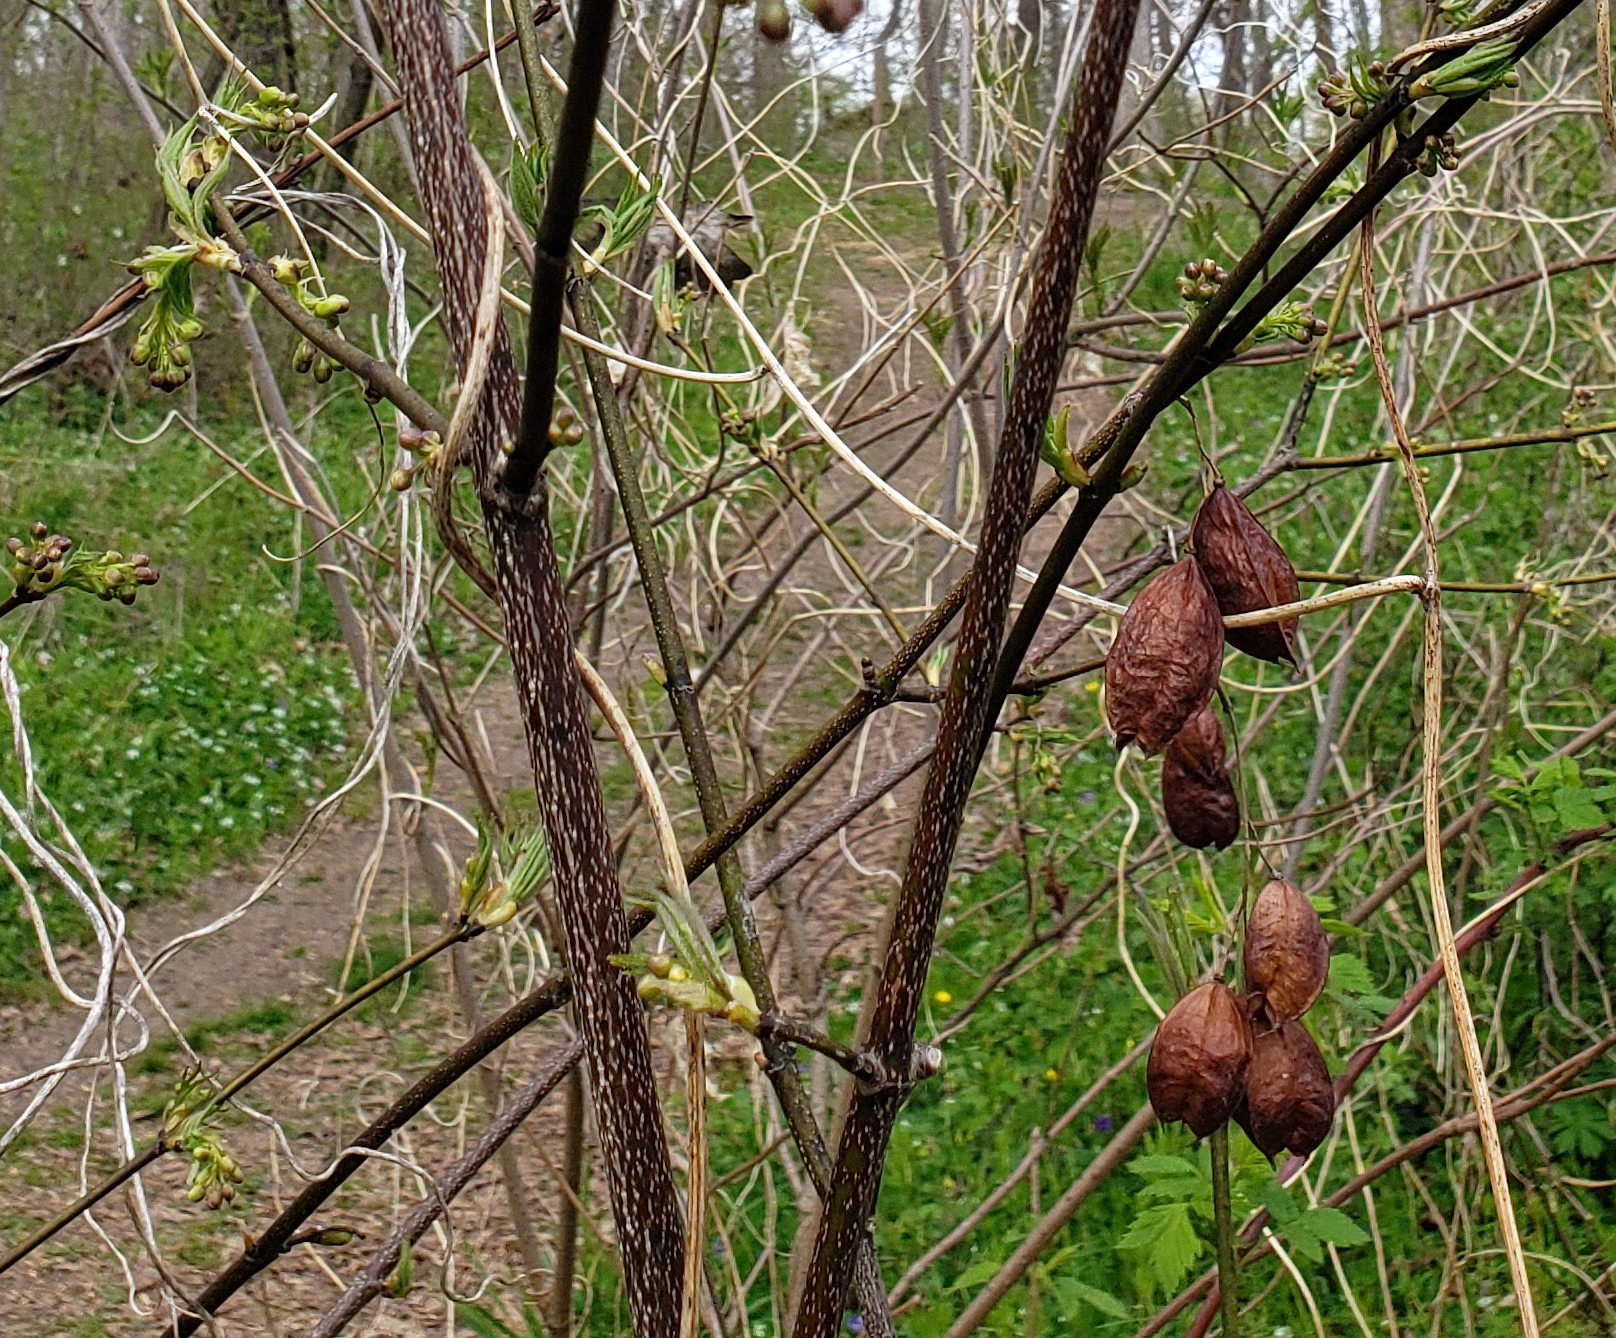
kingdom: Plantae
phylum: Tracheophyta
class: Magnoliopsida
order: Crossosomatales
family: Staphyleaceae
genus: Staphylea
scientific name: Staphylea trifolia
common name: American bladdernut
